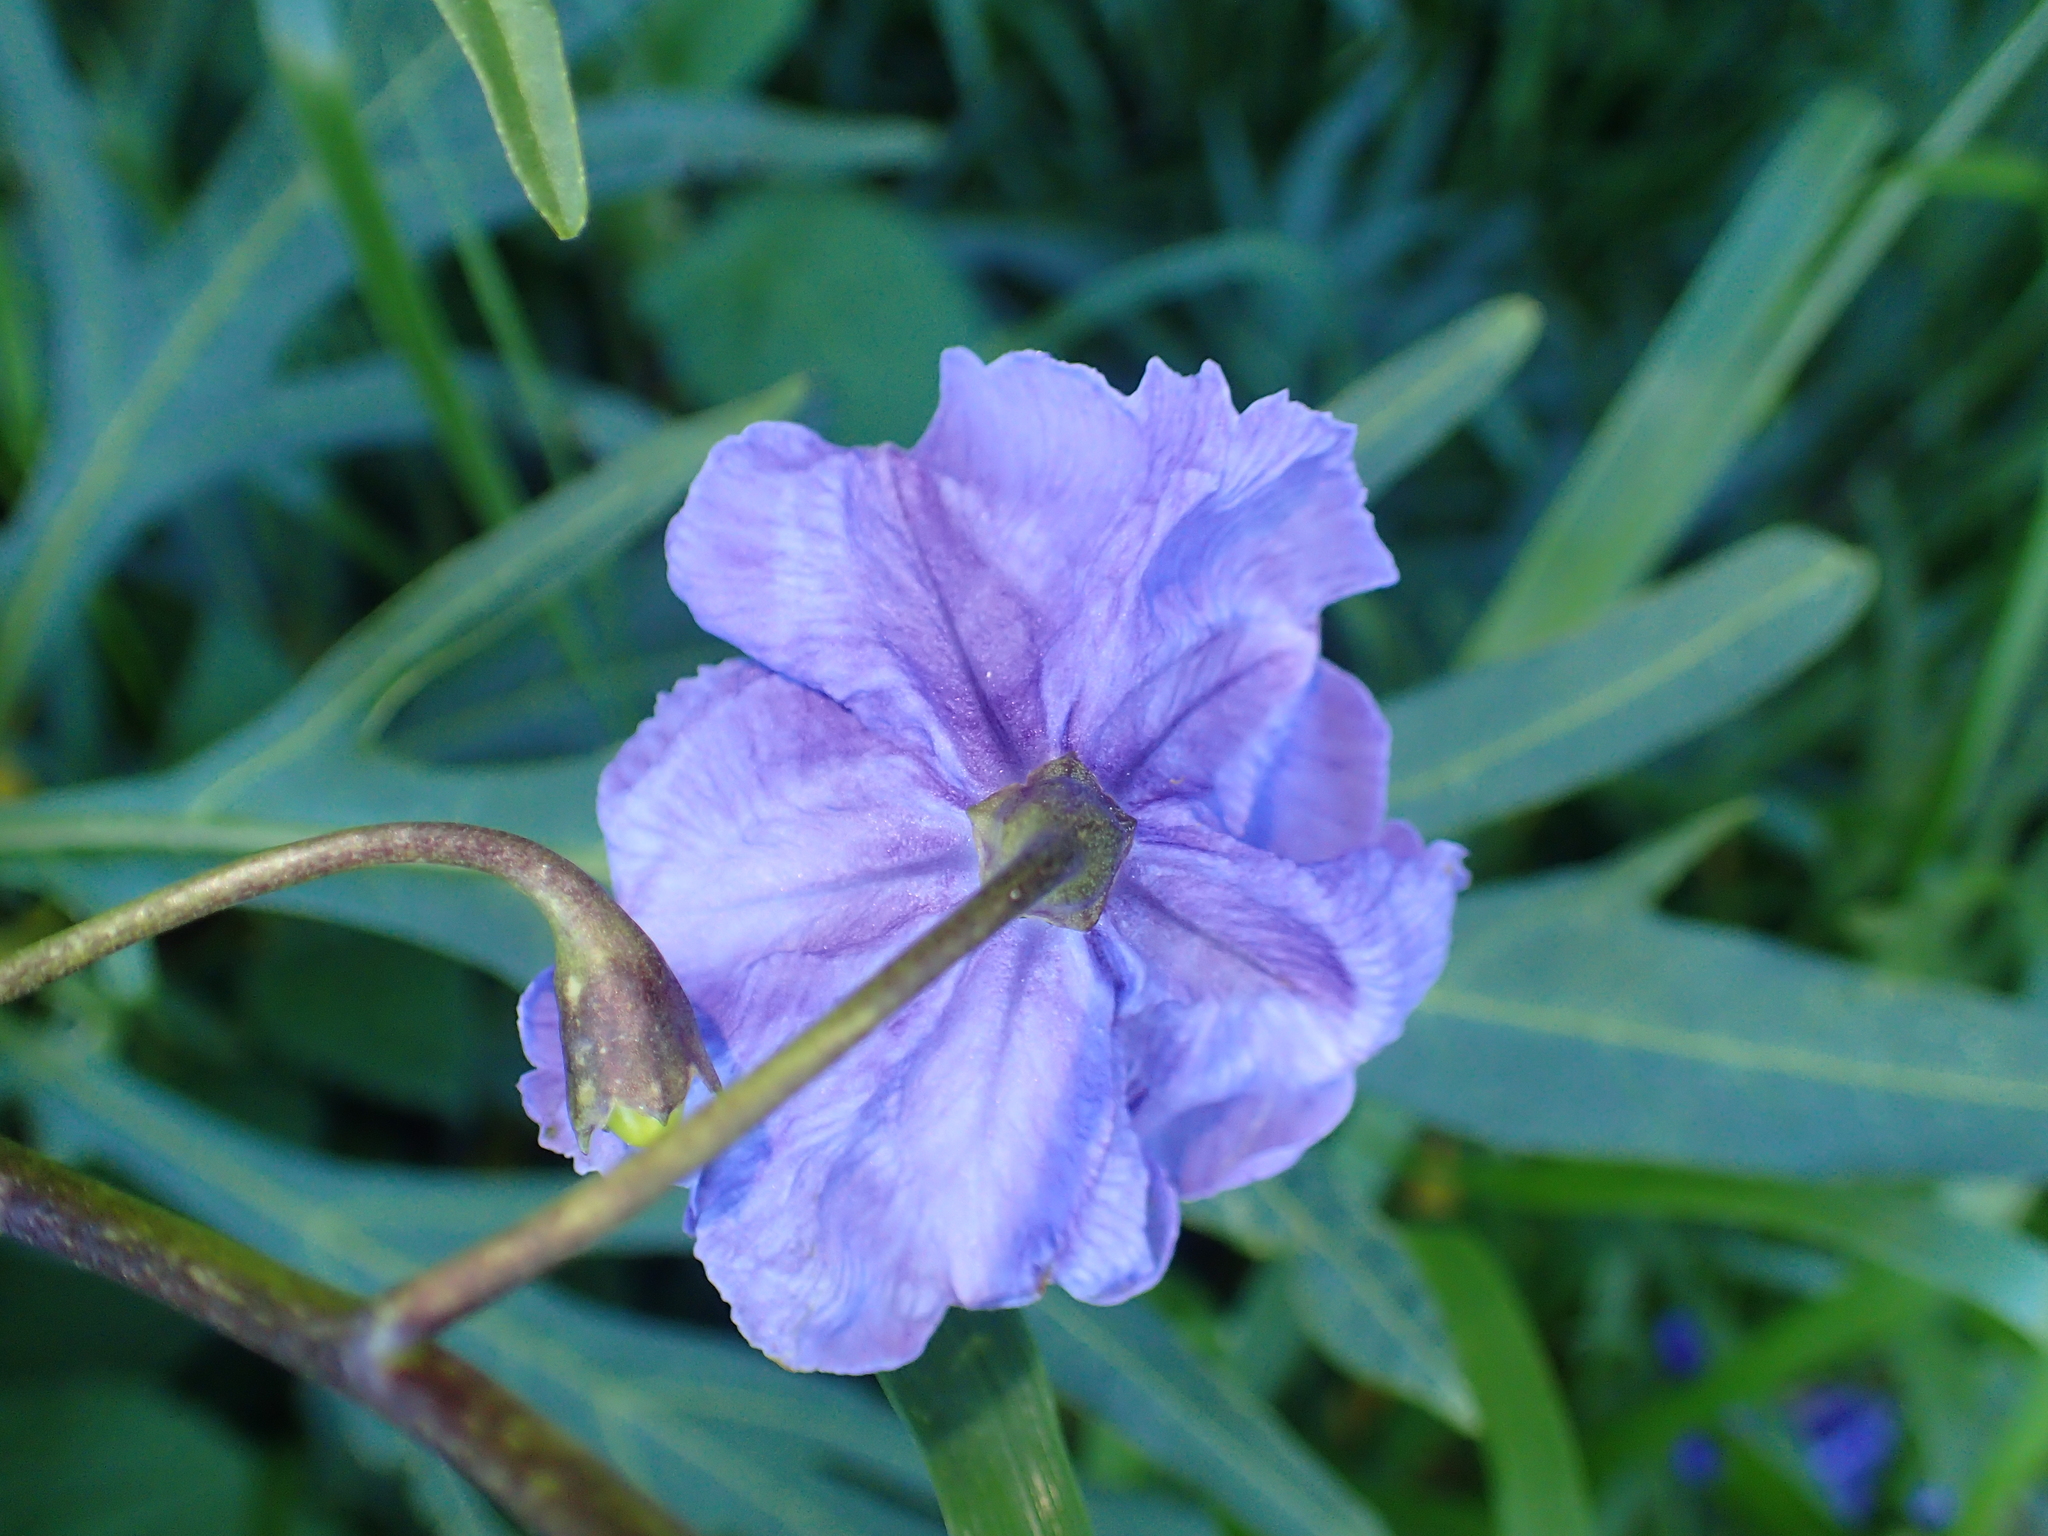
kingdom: Plantae
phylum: Tracheophyta
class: Magnoliopsida
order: Solanales
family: Solanaceae
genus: Solanum
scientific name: Solanum laciniatum
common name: Kangaroo-apple
